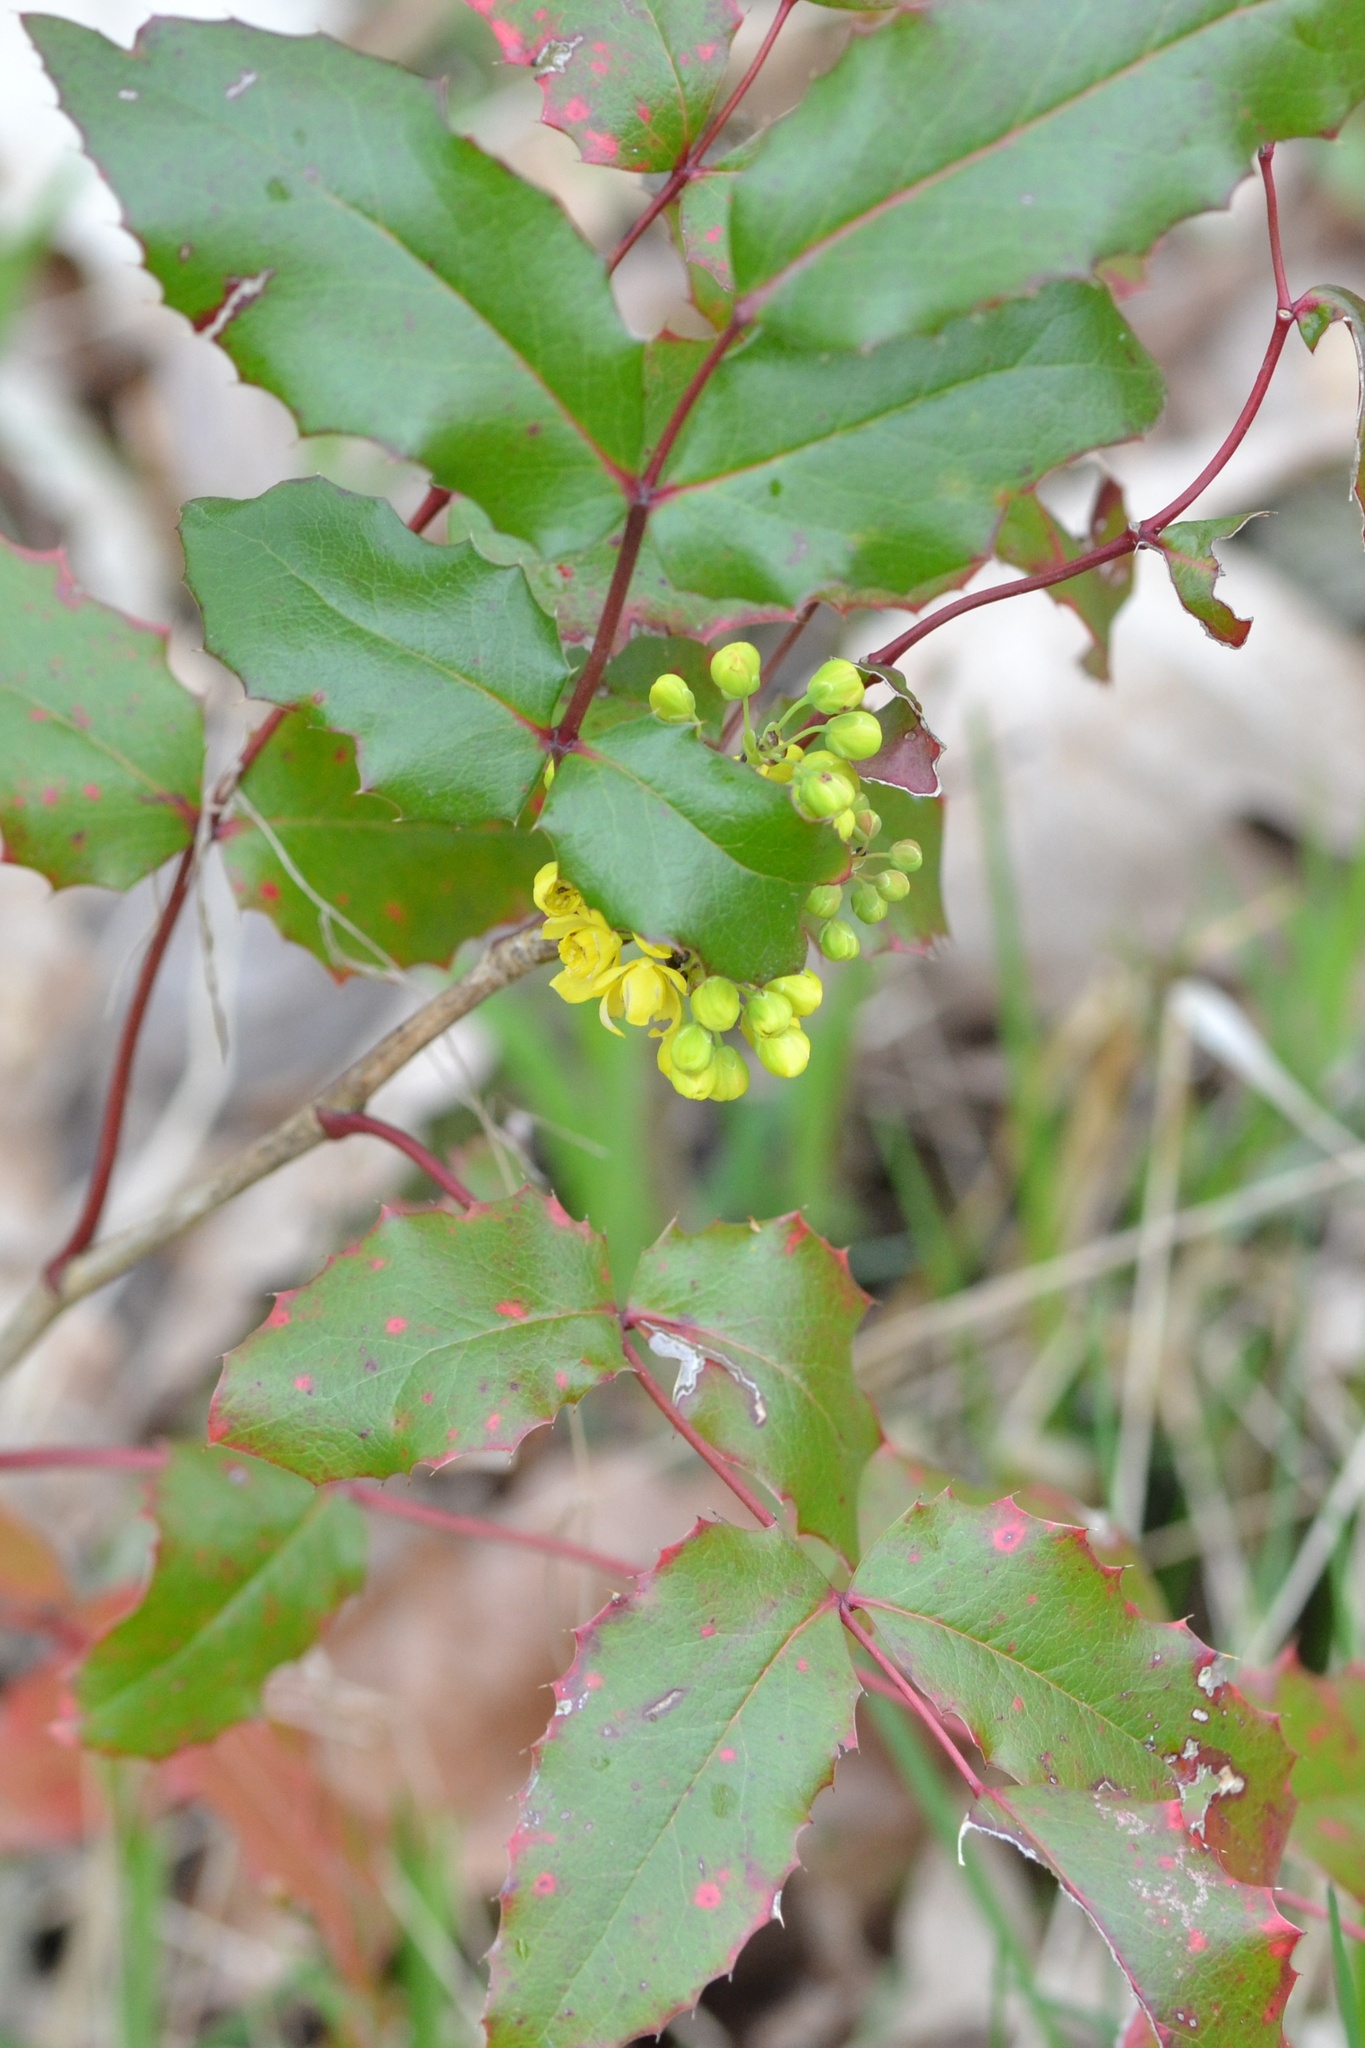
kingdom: Plantae
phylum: Tracheophyta
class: Magnoliopsida
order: Ranunculales
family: Berberidaceae
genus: Mahonia
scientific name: Mahonia aquifolium
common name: Oregon-grape
